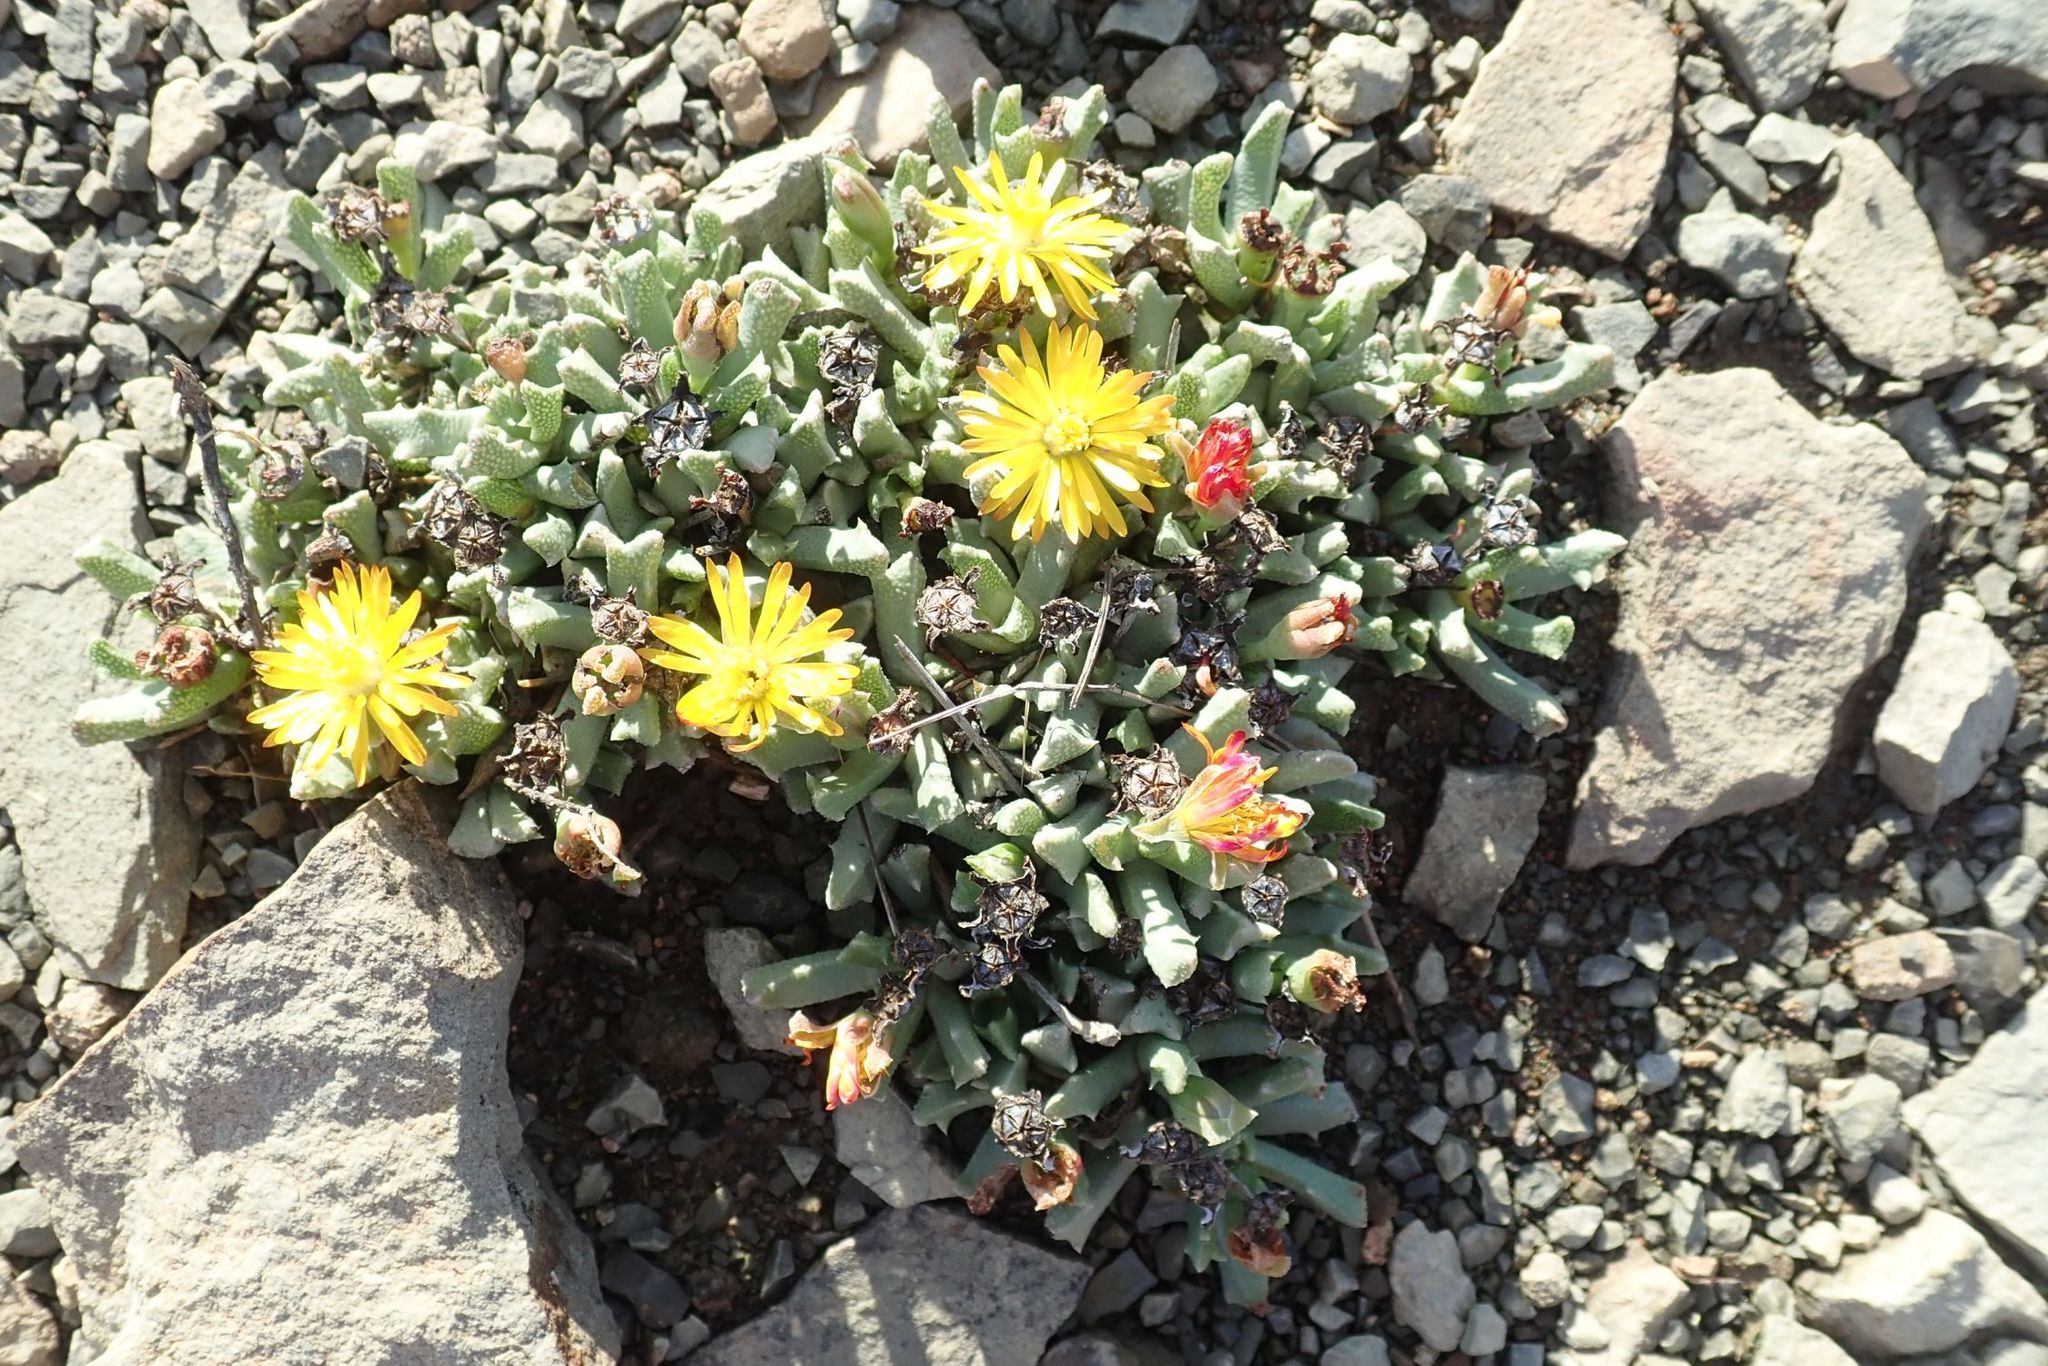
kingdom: Plantae
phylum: Tracheophyta
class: Magnoliopsida
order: Caryophyllales
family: Aizoaceae
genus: Dracophilus
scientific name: Dracophilus Chasmatophyllum musculinum
